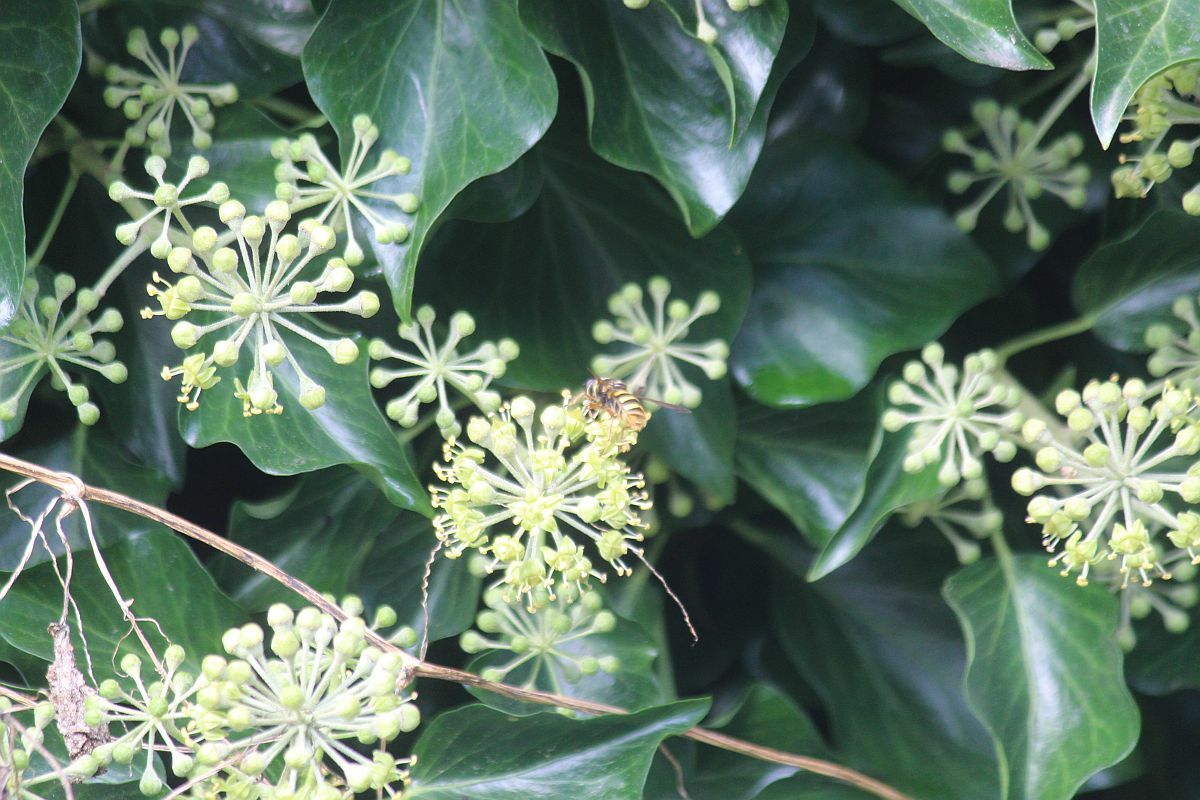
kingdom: Plantae
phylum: Tracheophyta
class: Magnoliopsida
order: Apiales
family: Araliaceae
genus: Hedera
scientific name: Hedera helix
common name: Ivy
